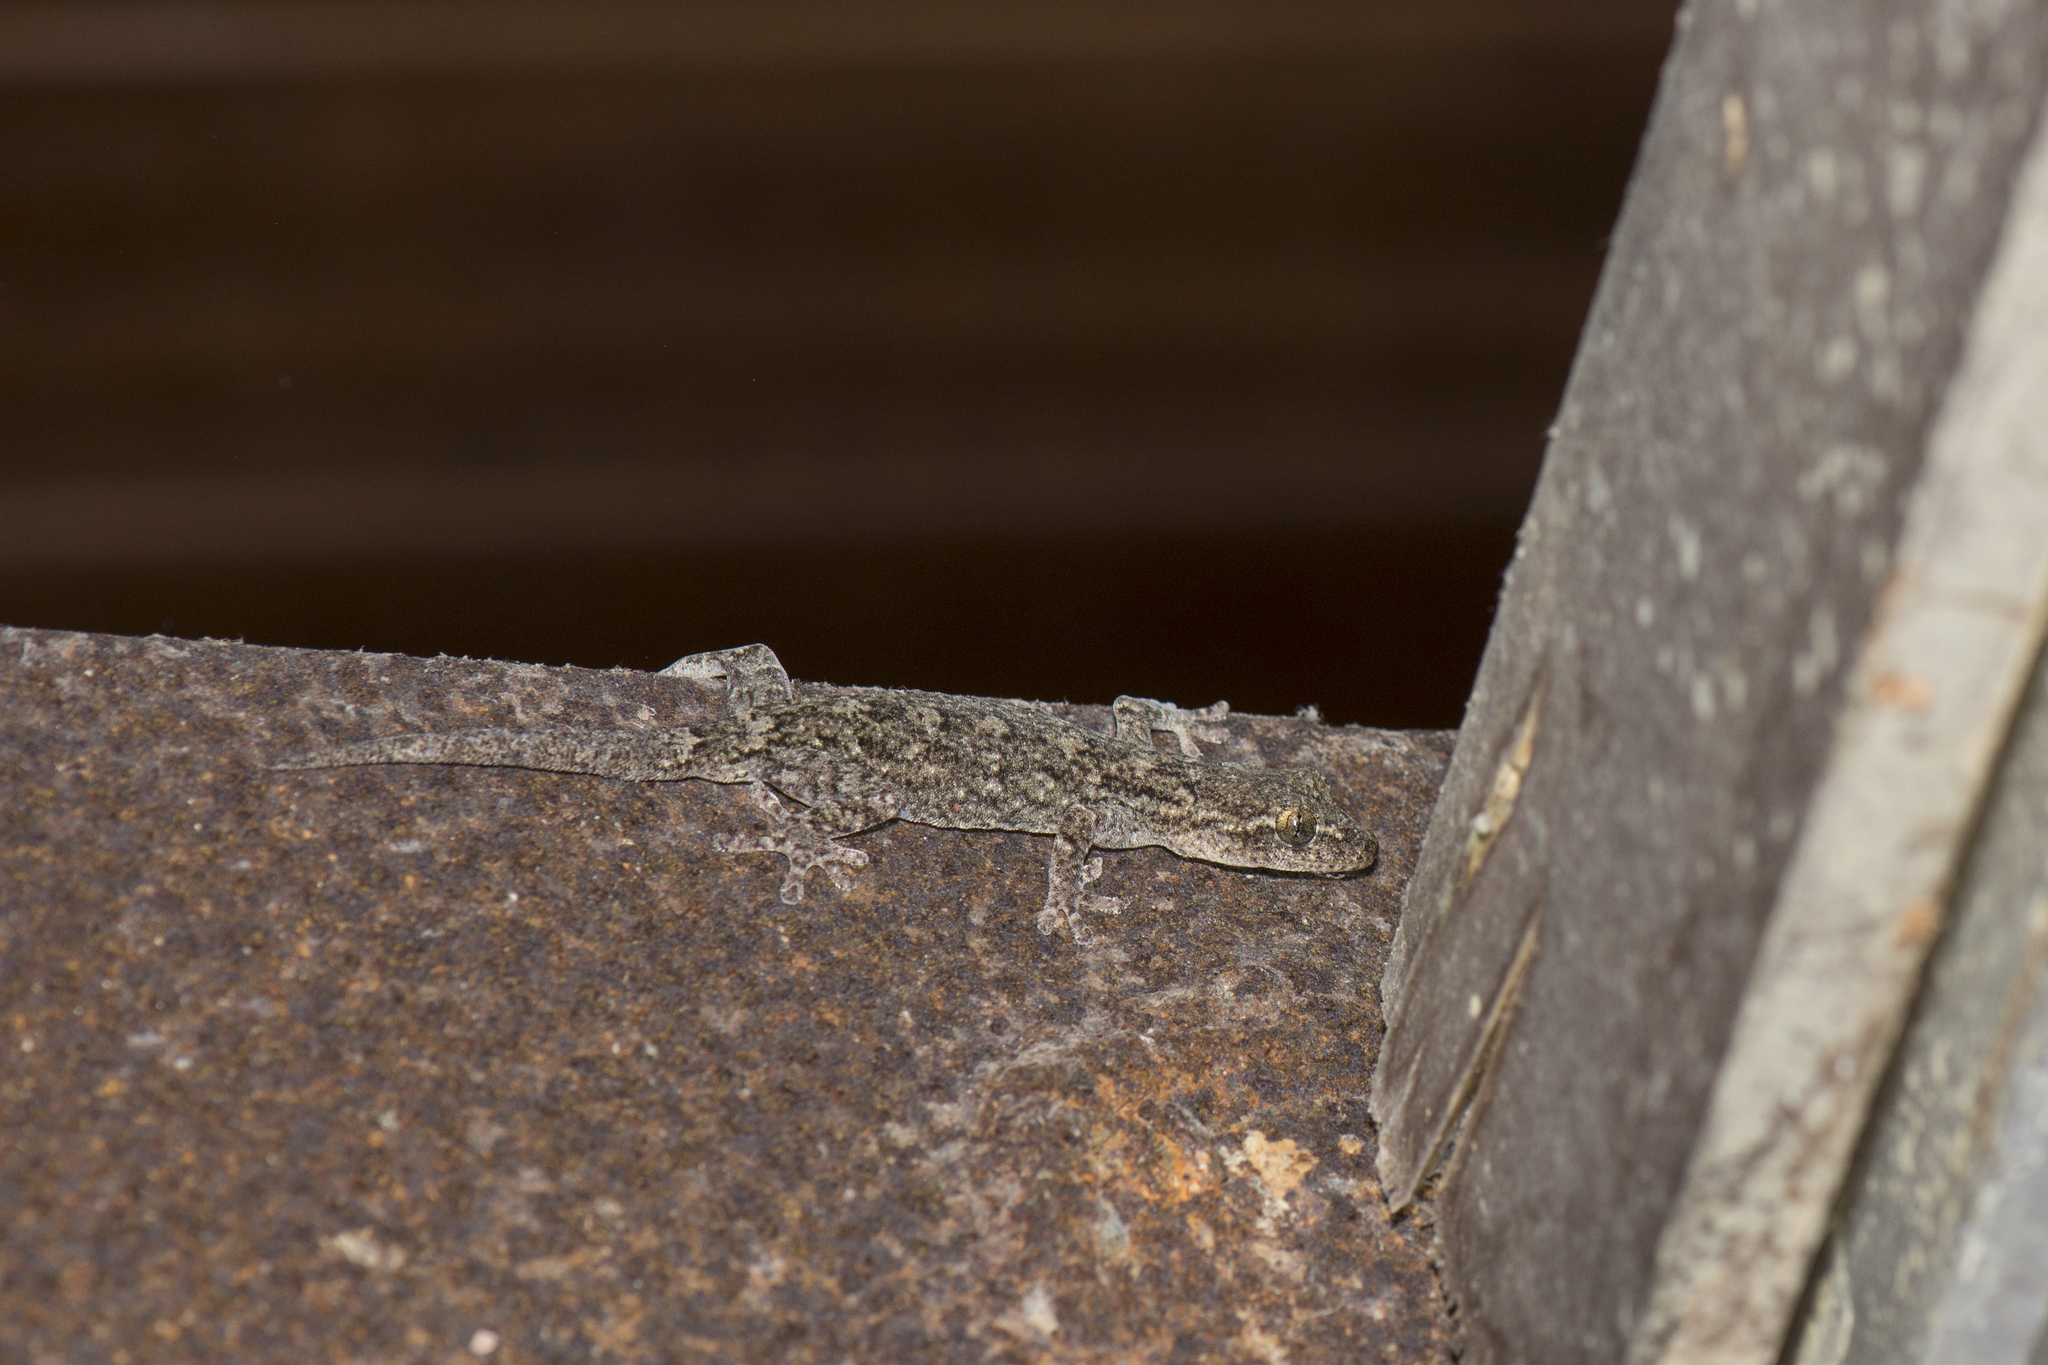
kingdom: Animalia
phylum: Chordata
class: Squamata
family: Gekkonidae
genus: Gekko
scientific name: Gekko hokouensis
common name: Kwangsi gecko
